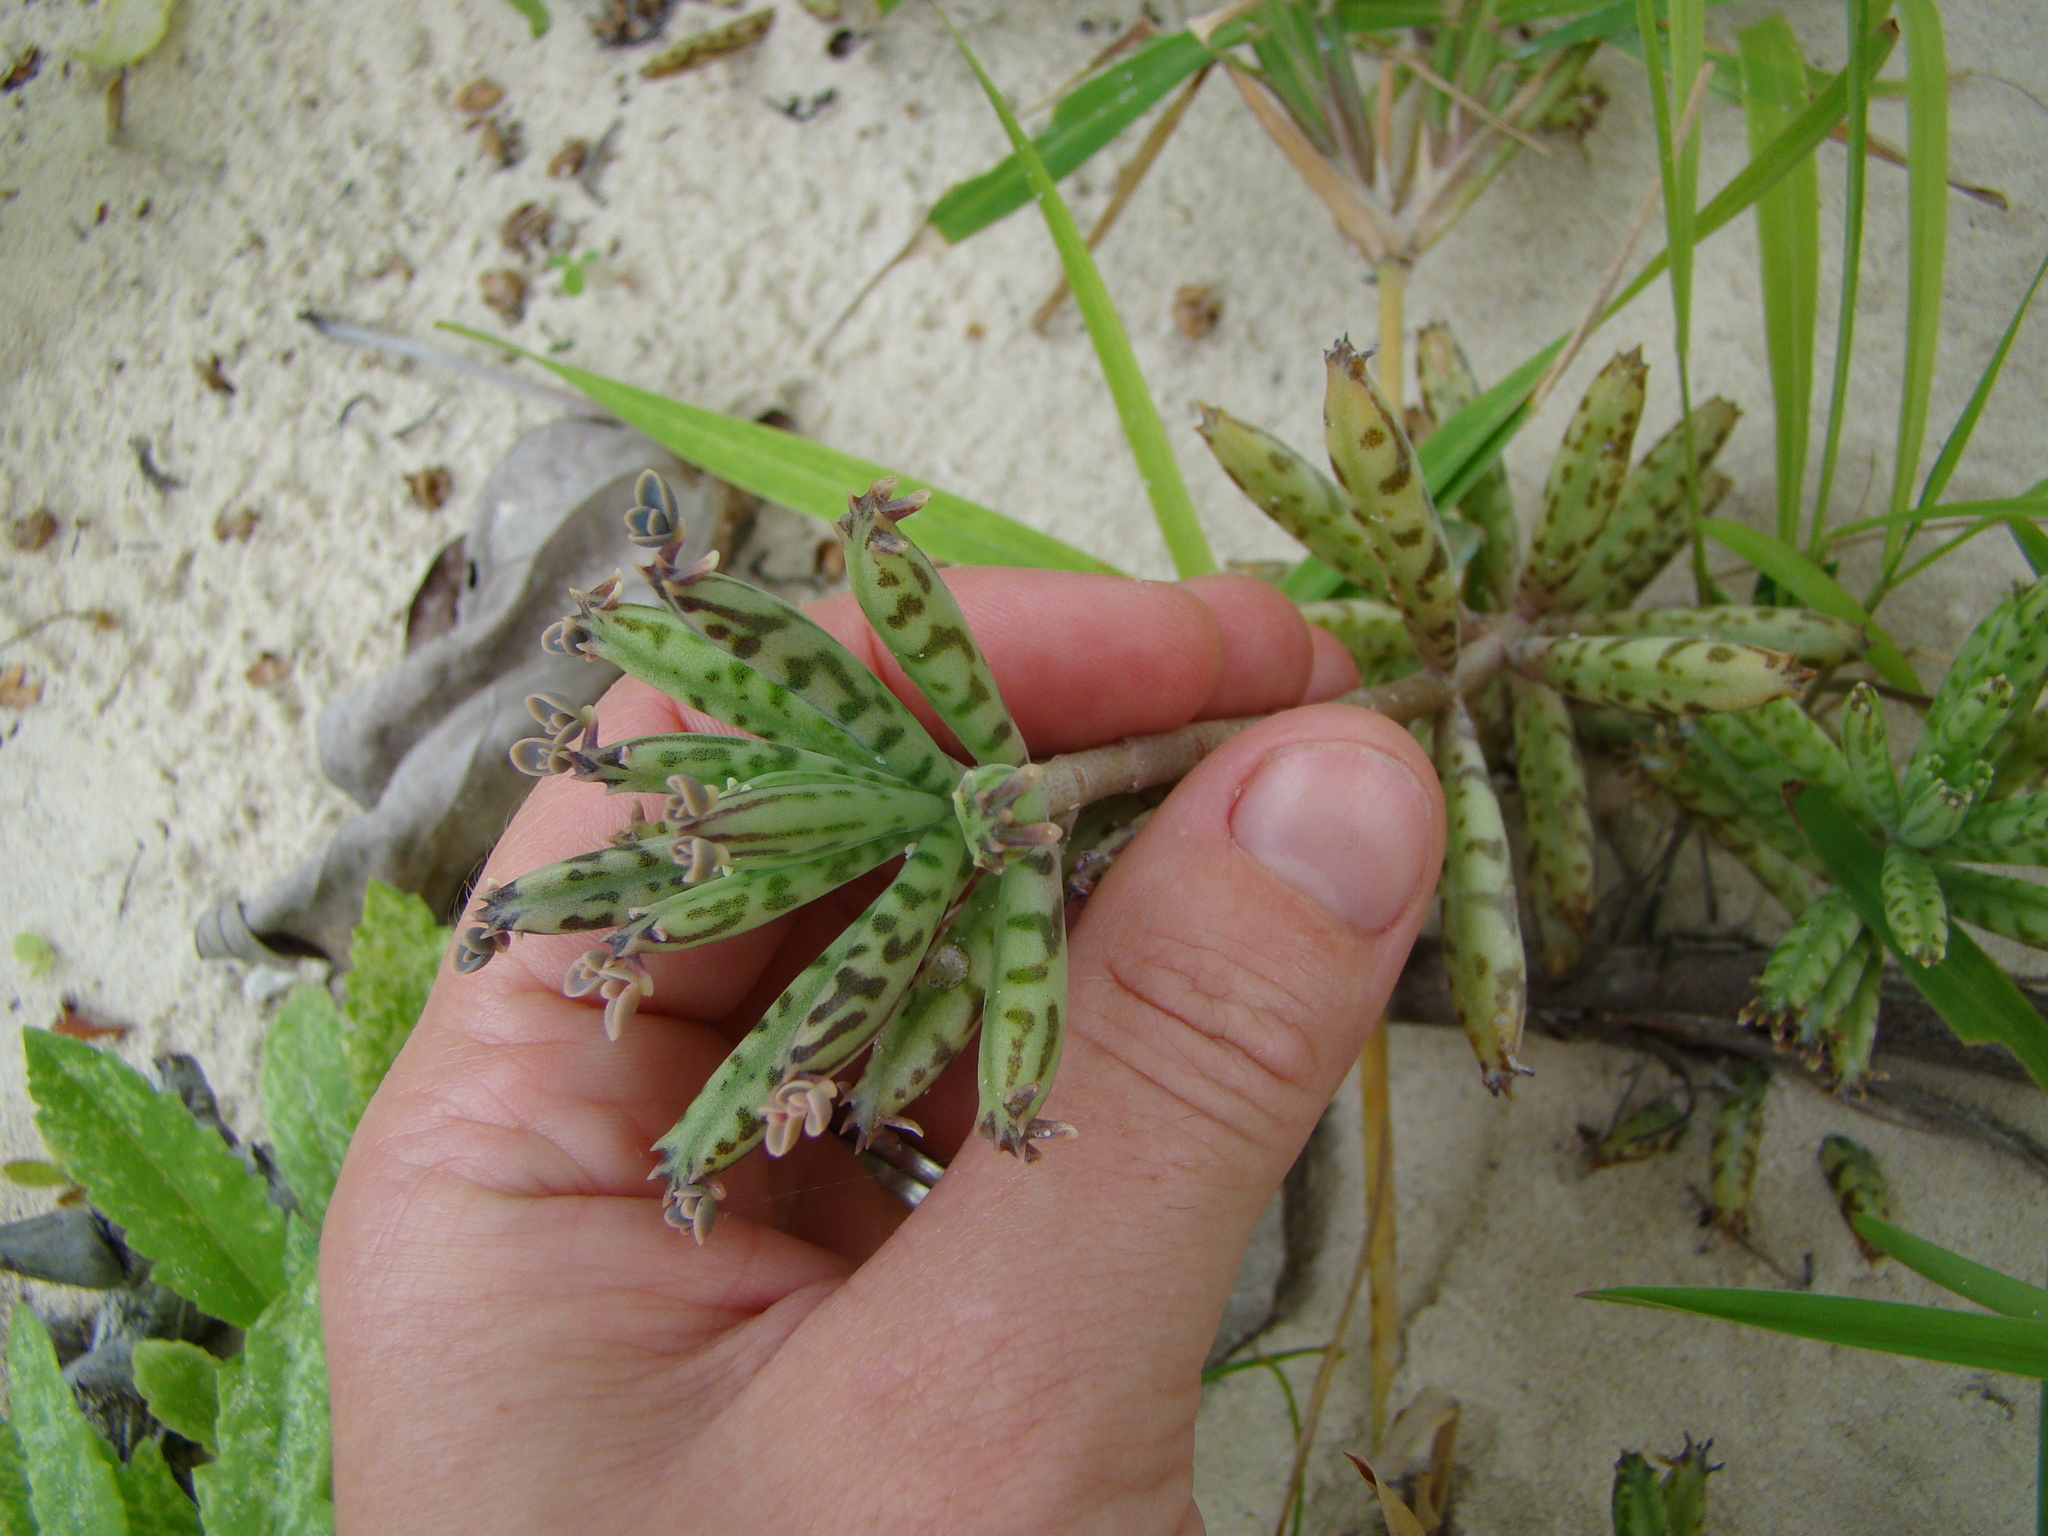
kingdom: Plantae
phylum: Tracheophyta
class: Magnoliopsida
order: Saxifragales
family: Crassulaceae
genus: Kalanchoe
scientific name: Kalanchoe delagoensis
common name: Chandelier plant
